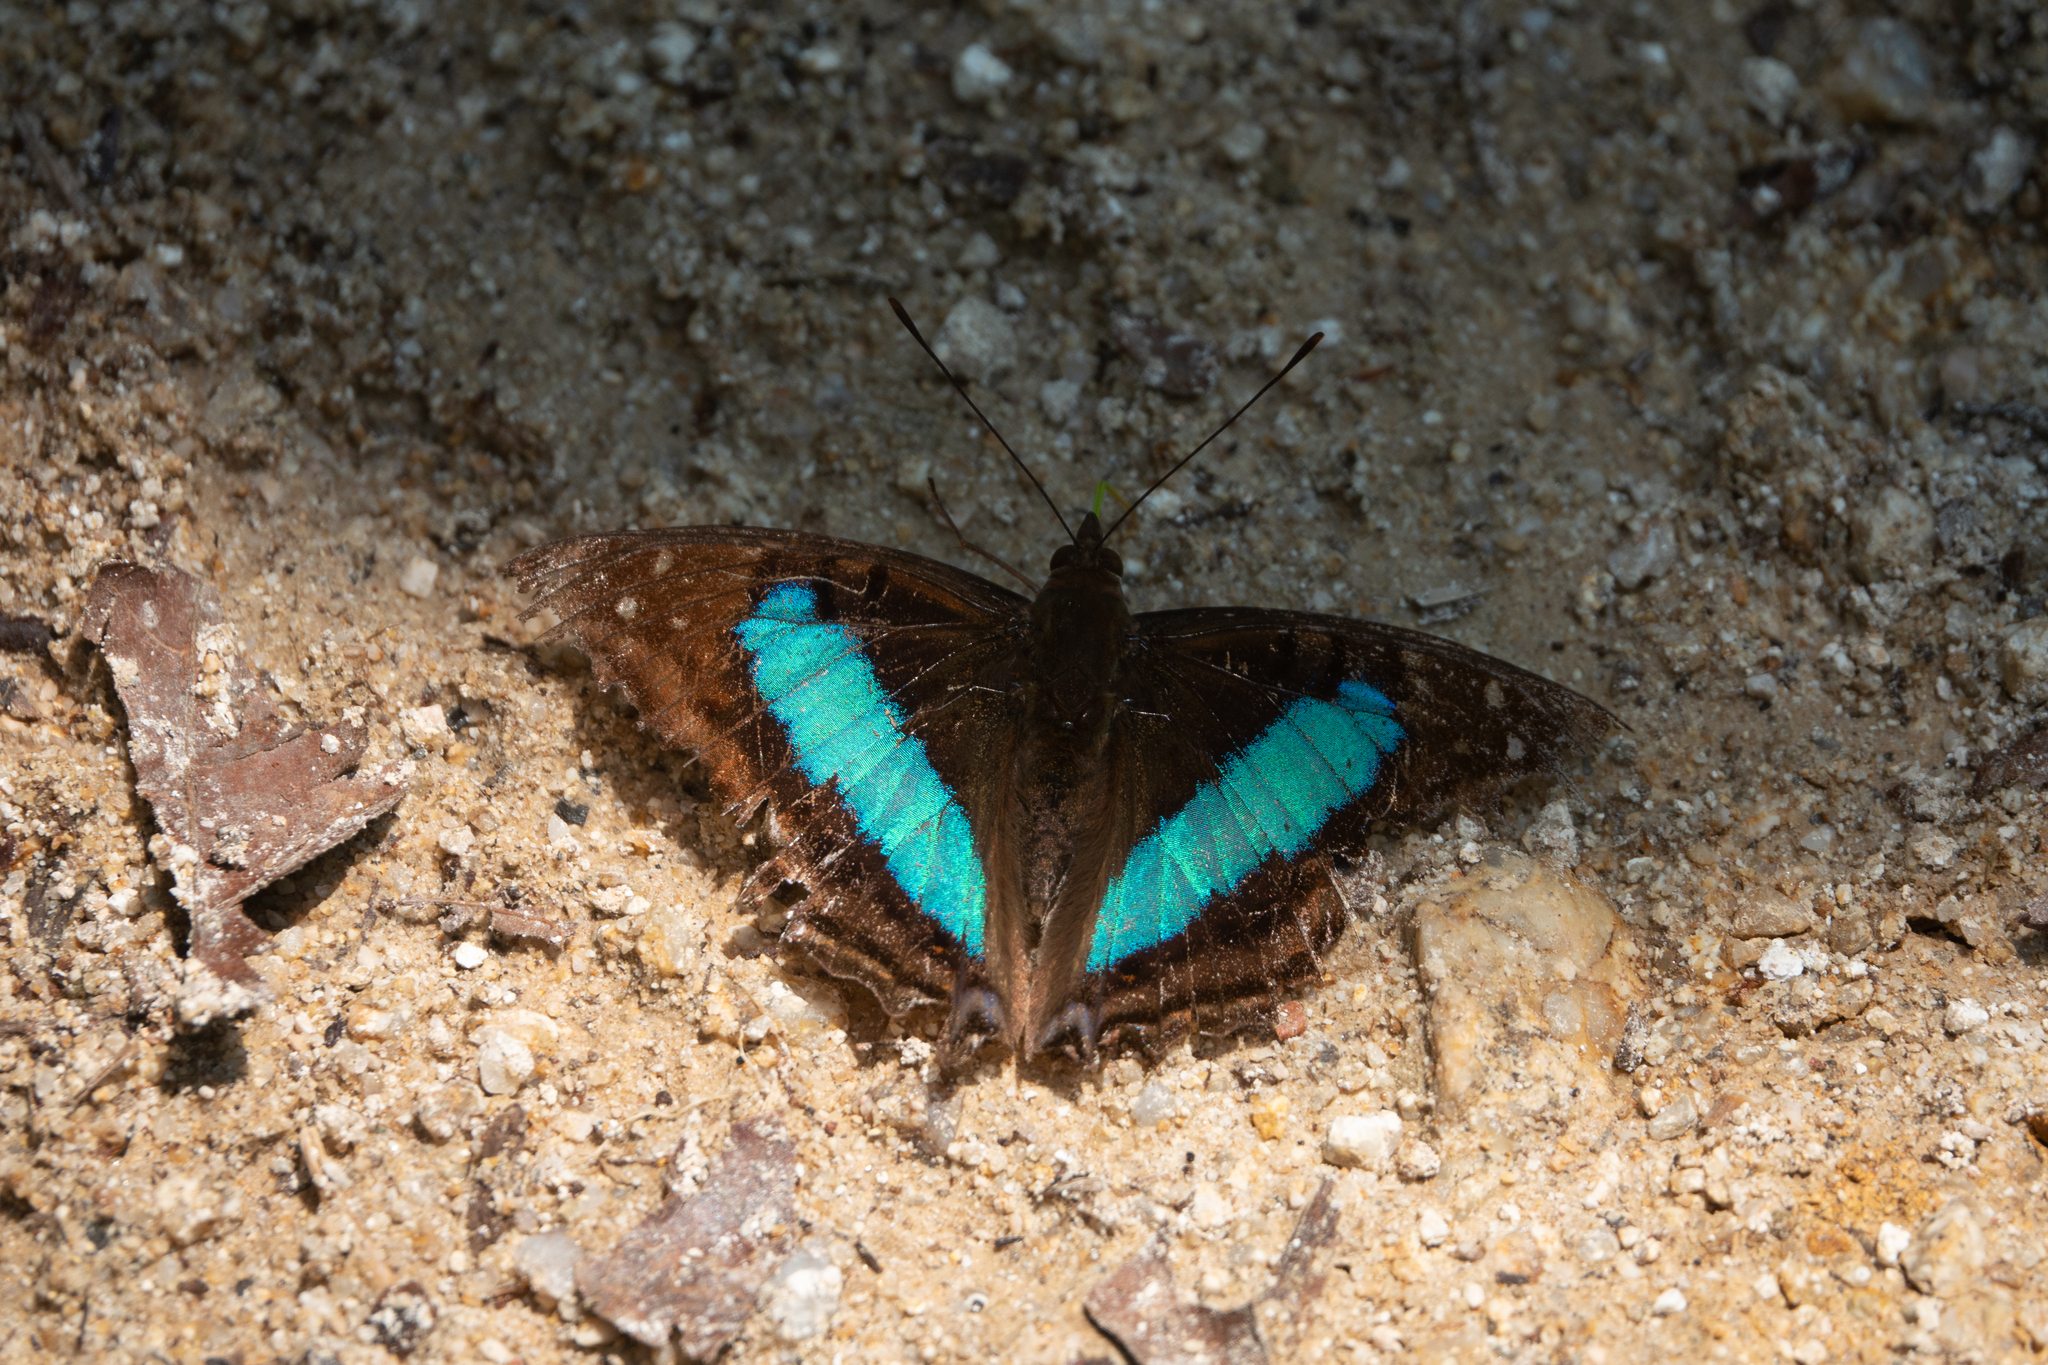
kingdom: Animalia
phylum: Arthropoda
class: Insecta
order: Lepidoptera
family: Nymphalidae
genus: Doxocopa
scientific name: Doxocopa laurentia
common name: Turquoise emperor
